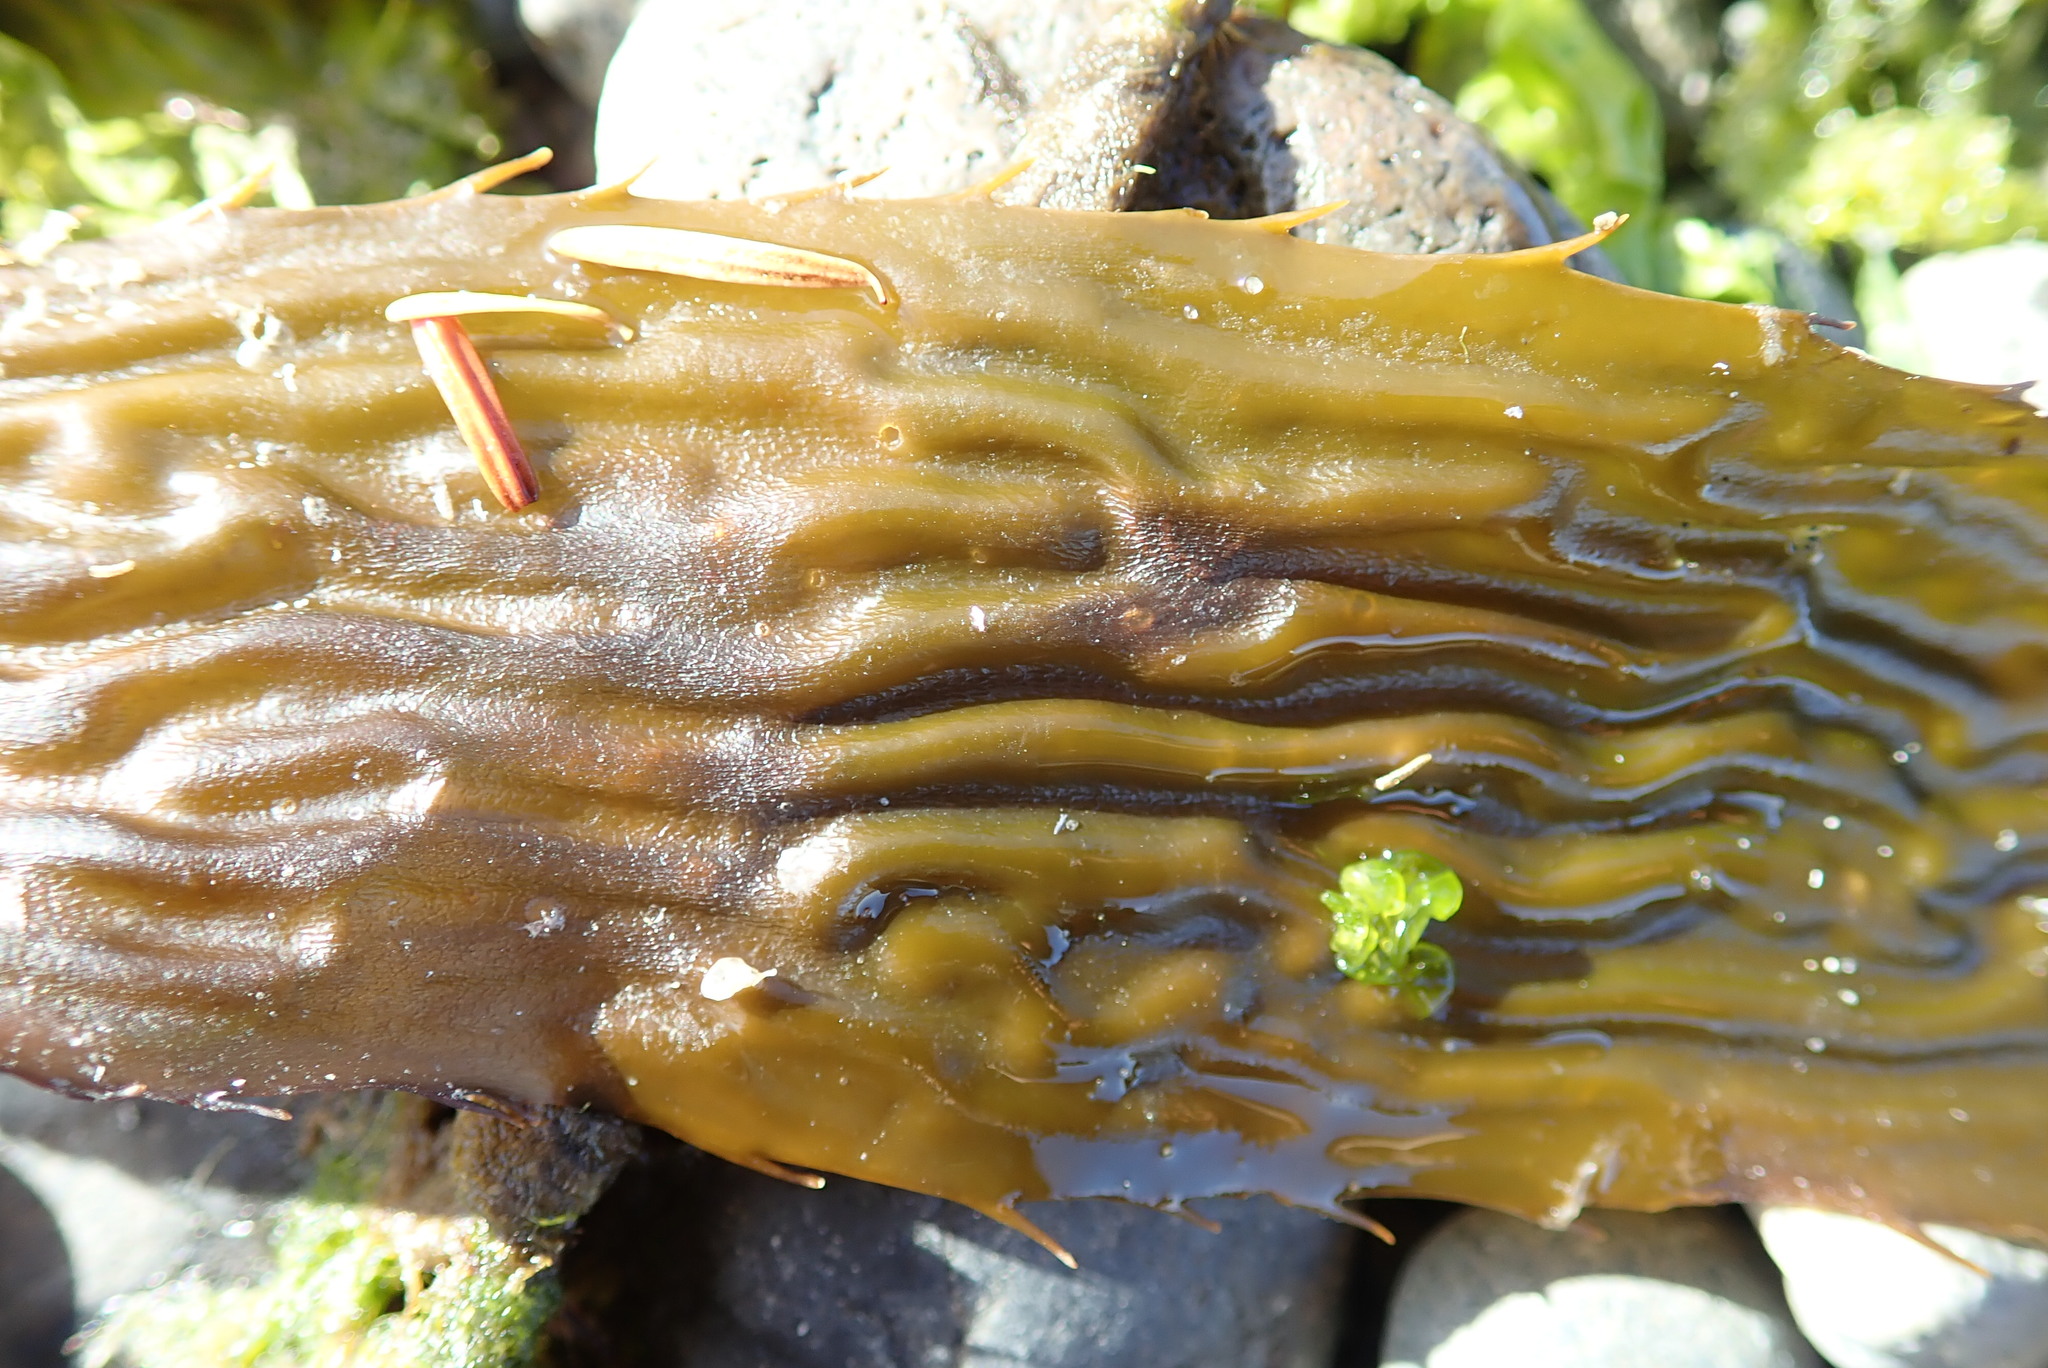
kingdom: Chromista
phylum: Ochrophyta
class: Phaeophyceae
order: Laminariales
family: Laminariaceae
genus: Macrocystis
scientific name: Macrocystis pyrifera
